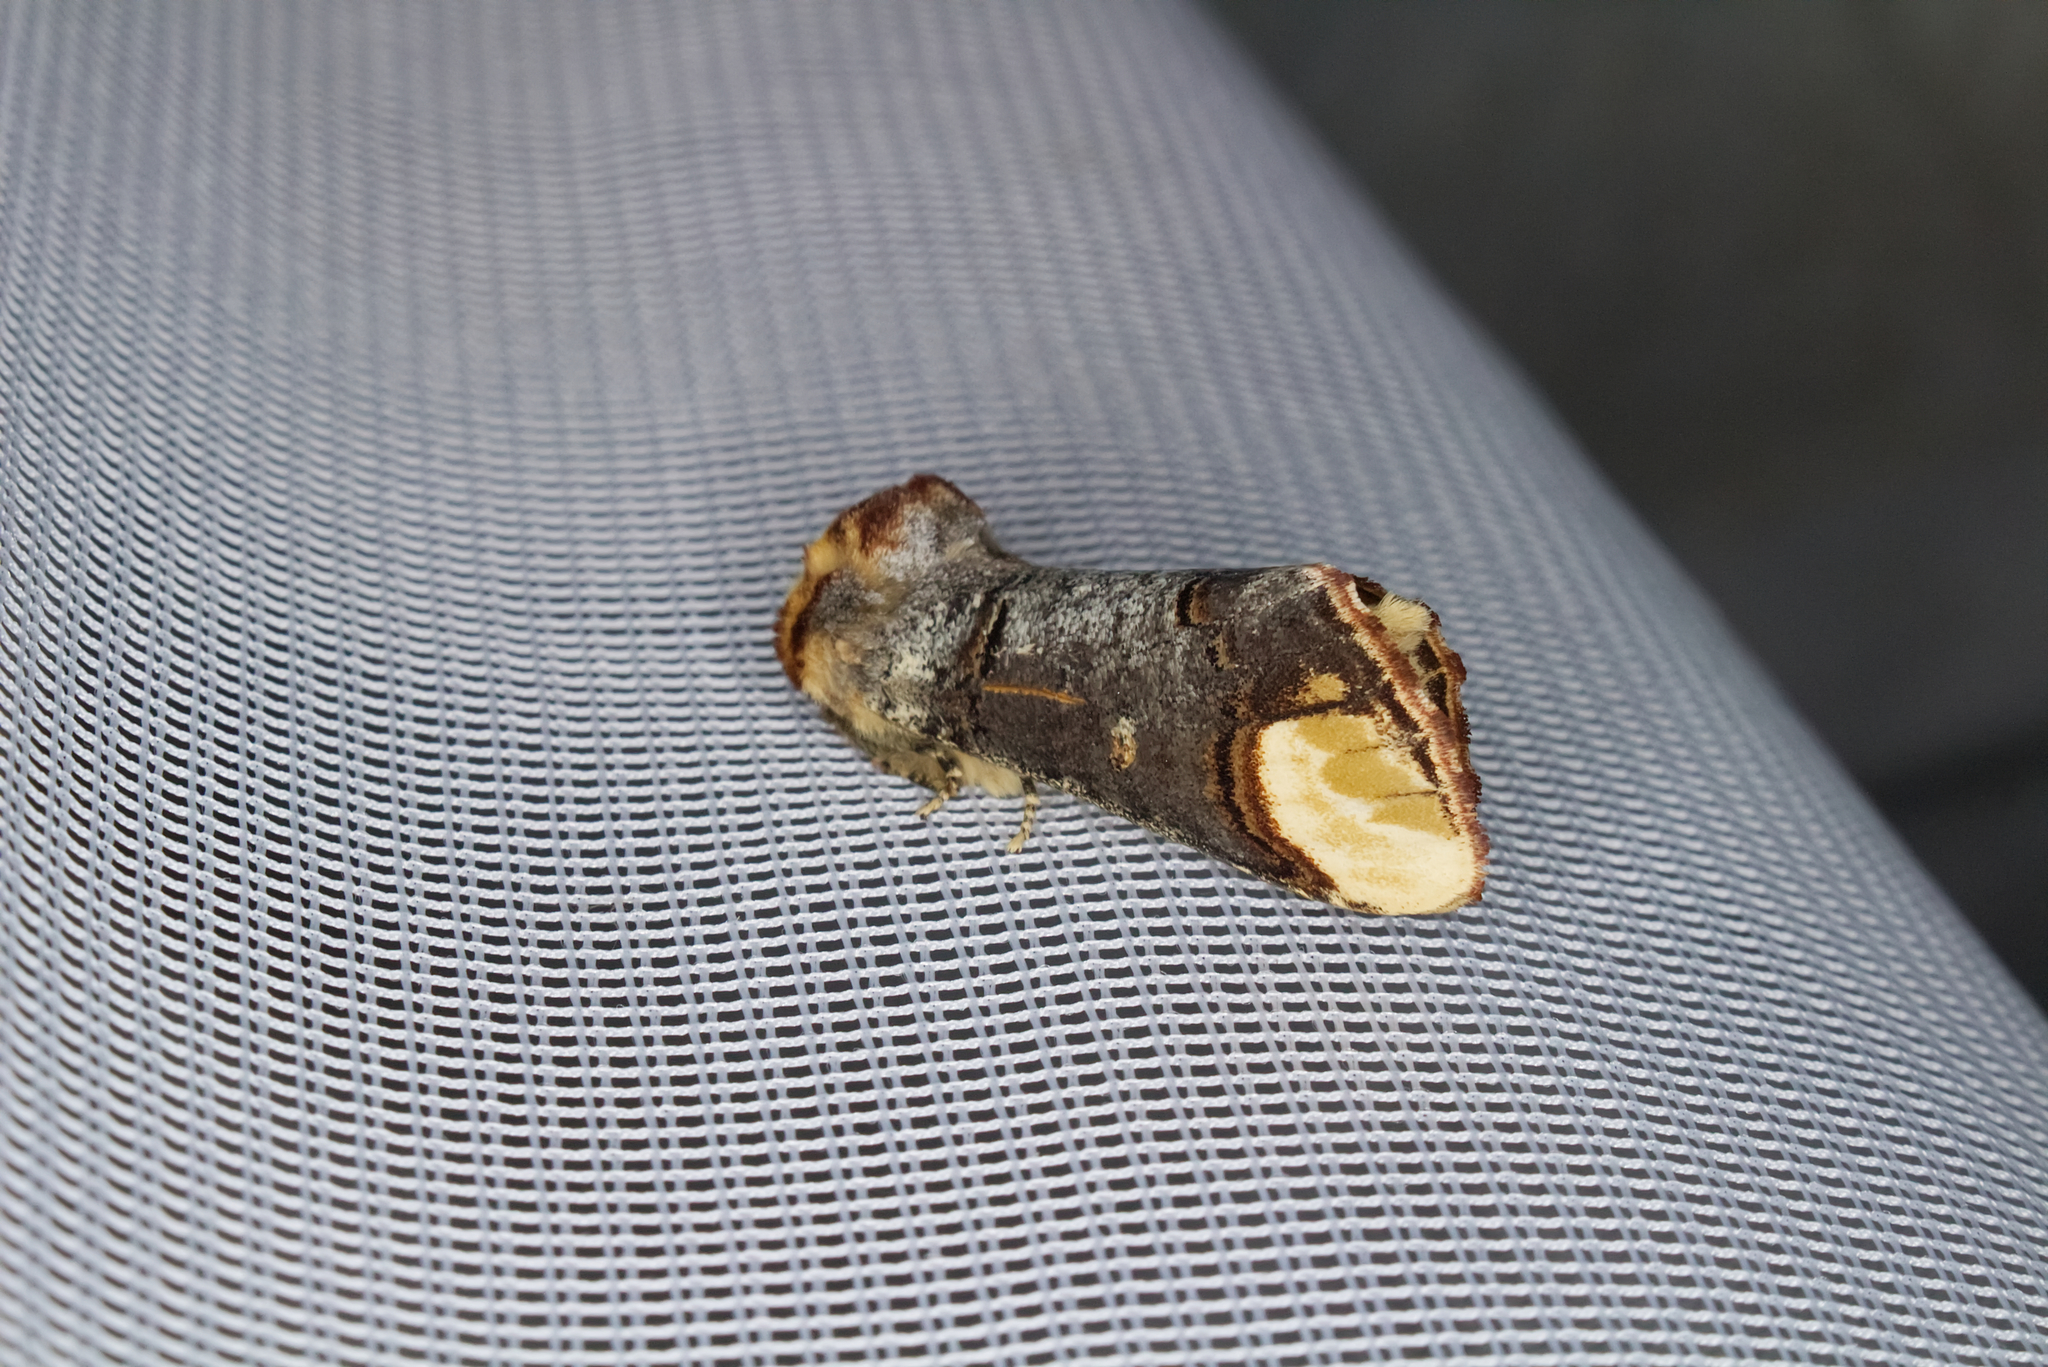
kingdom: Animalia
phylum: Arthropoda
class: Insecta
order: Lepidoptera
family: Notodontidae
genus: Phalera
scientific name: Phalera bucephala
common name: Buff-tip
